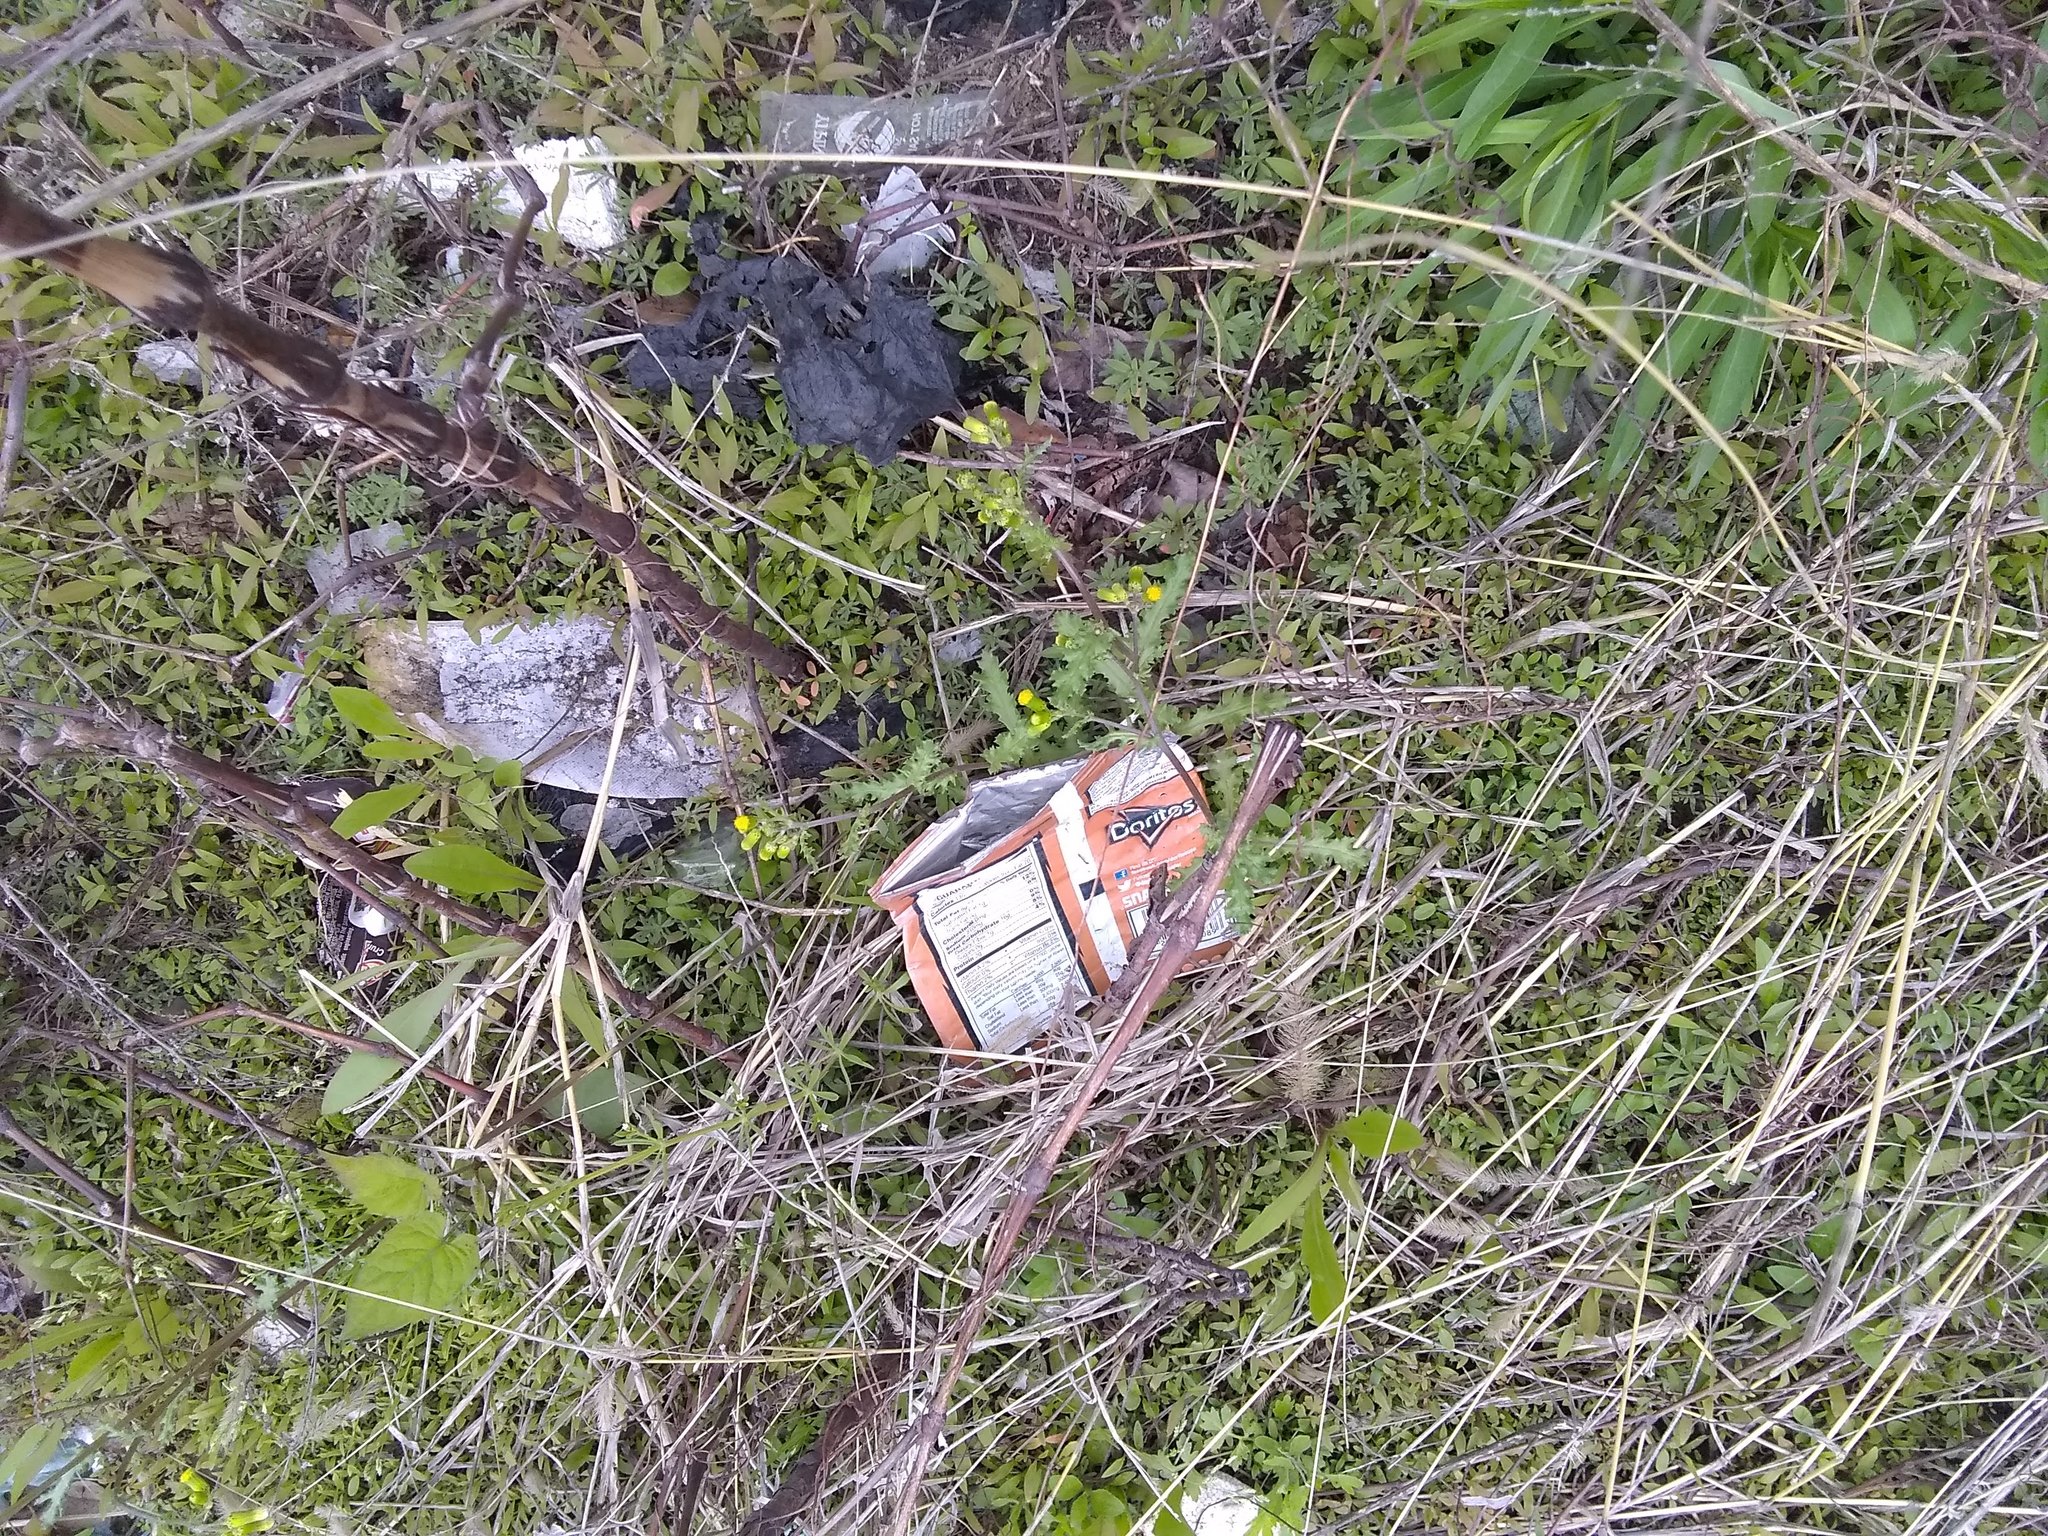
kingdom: Plantae
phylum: Tracheophyta
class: Magnoliopsida
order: Asterales
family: Asteraceae
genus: Senecio
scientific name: Senecio vulgaris
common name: Old-man-in-the-spring
